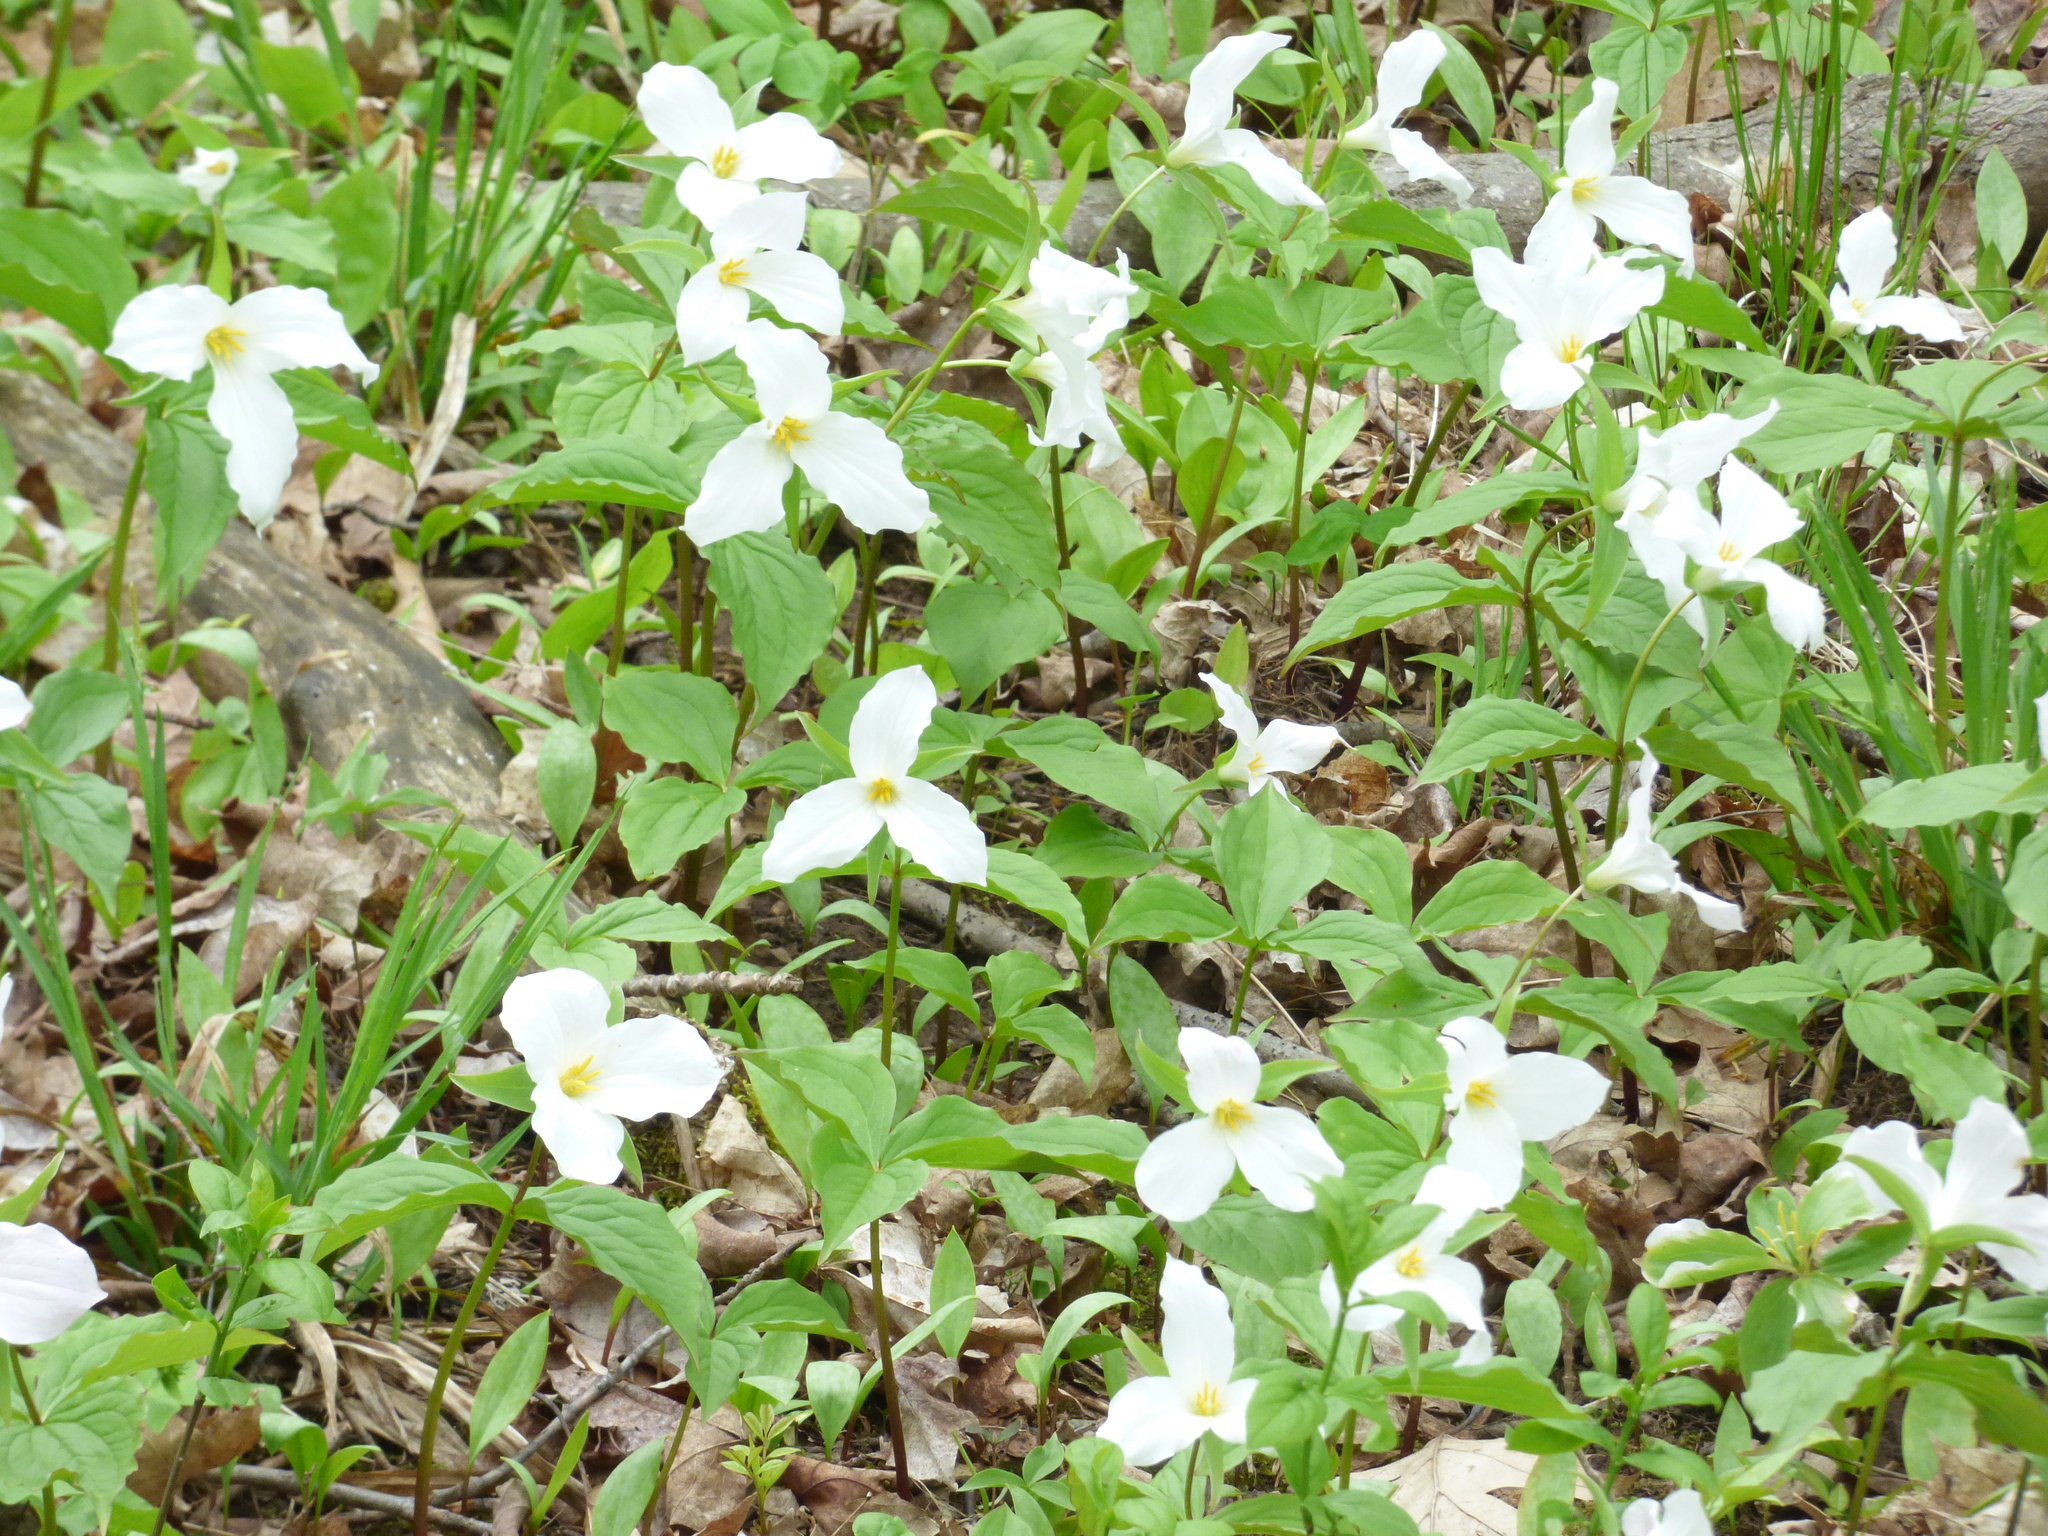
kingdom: Plantae
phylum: Tracheophyta
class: Liliopsida
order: Liliales
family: Melanthiaceae
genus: Trillium
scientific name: Trillium grandiflorum
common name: Great white trillium
